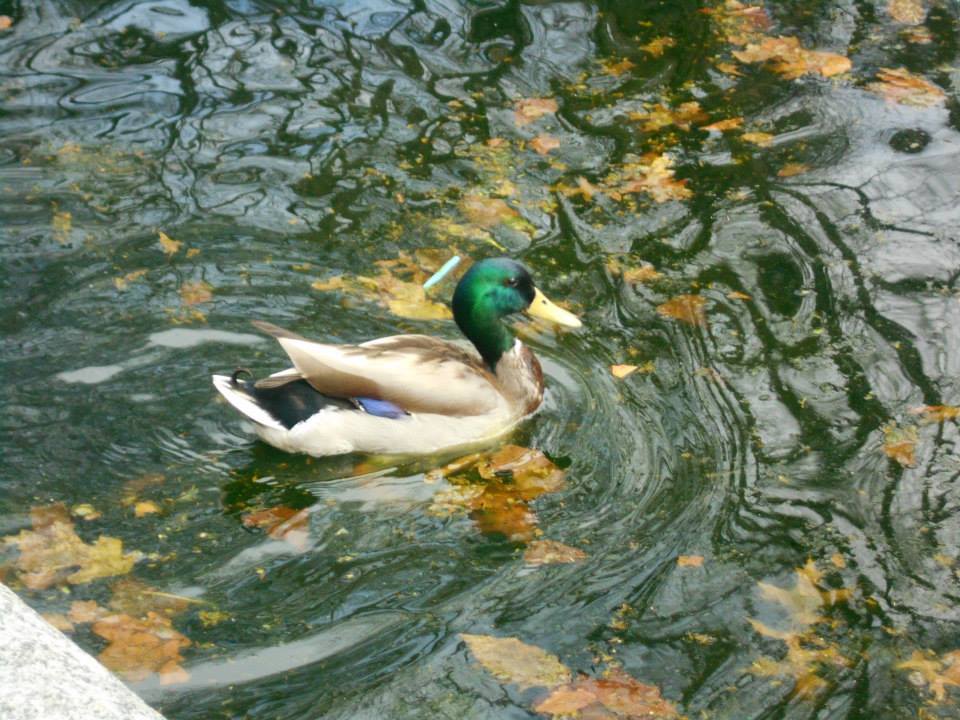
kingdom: Animalia
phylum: Chordata
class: Aves
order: Anseriformes
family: Anatidae
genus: Anas
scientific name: Anas platyrhynchos
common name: Mallard
